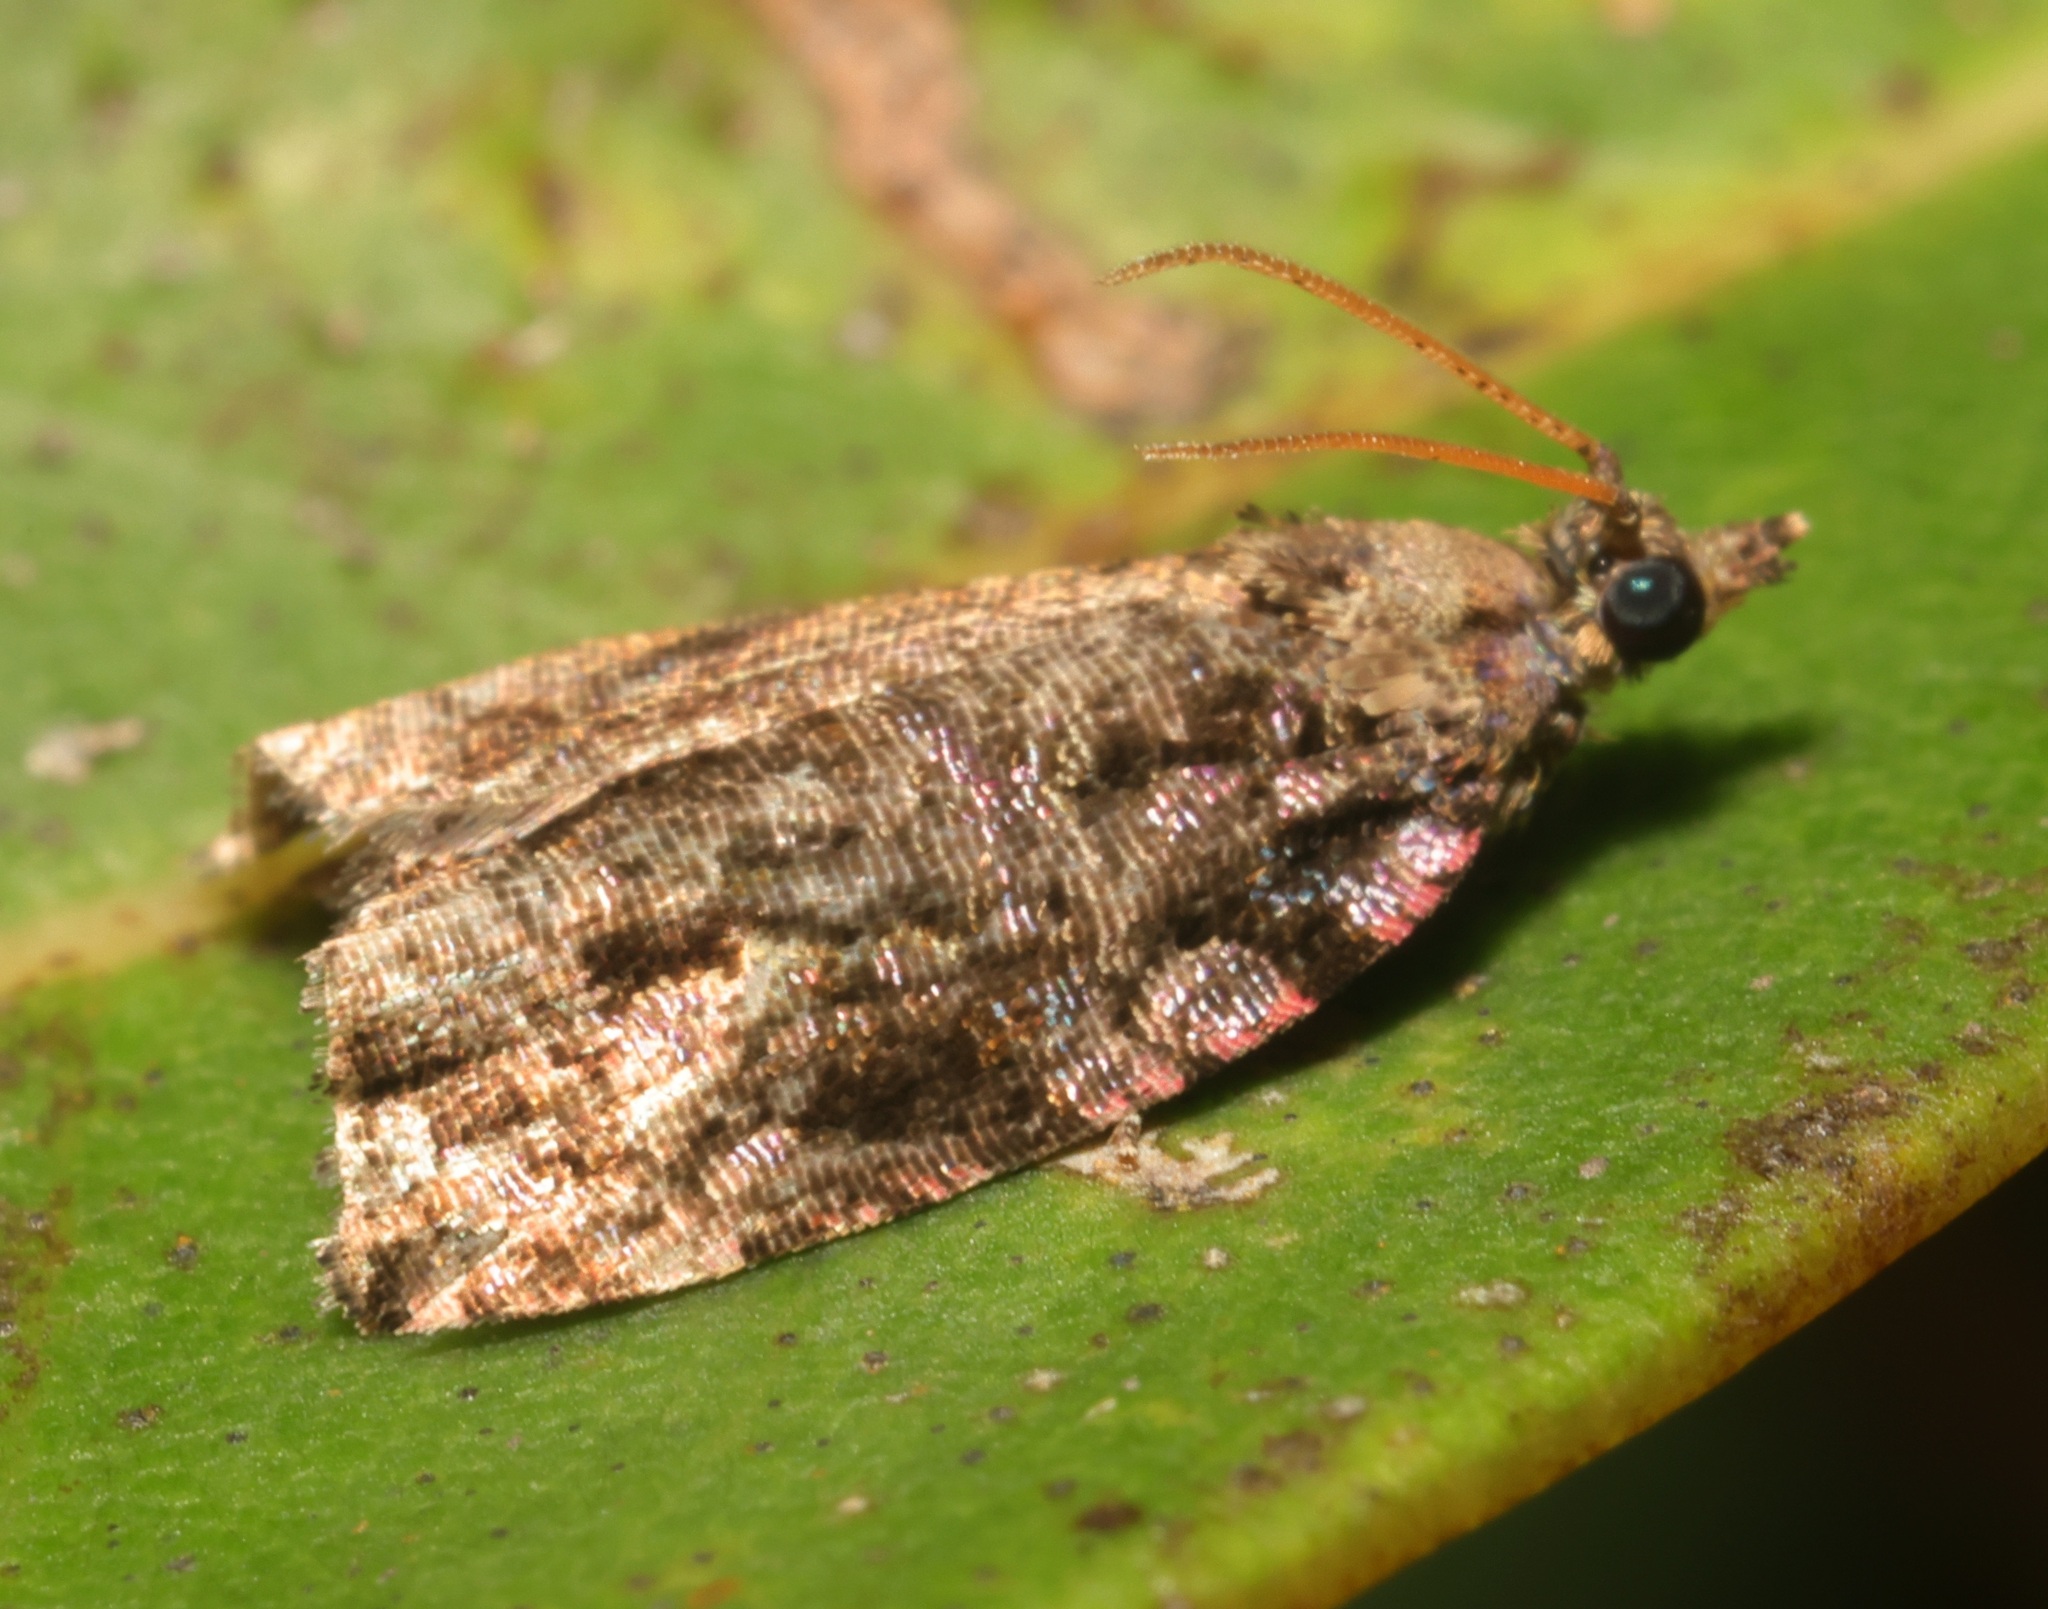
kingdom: Animalia
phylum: Arthropoda
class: Insecta
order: Lepidoptera
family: Tortricidae
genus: Gatesclarkeana
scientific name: Gatesclarkeana idia
